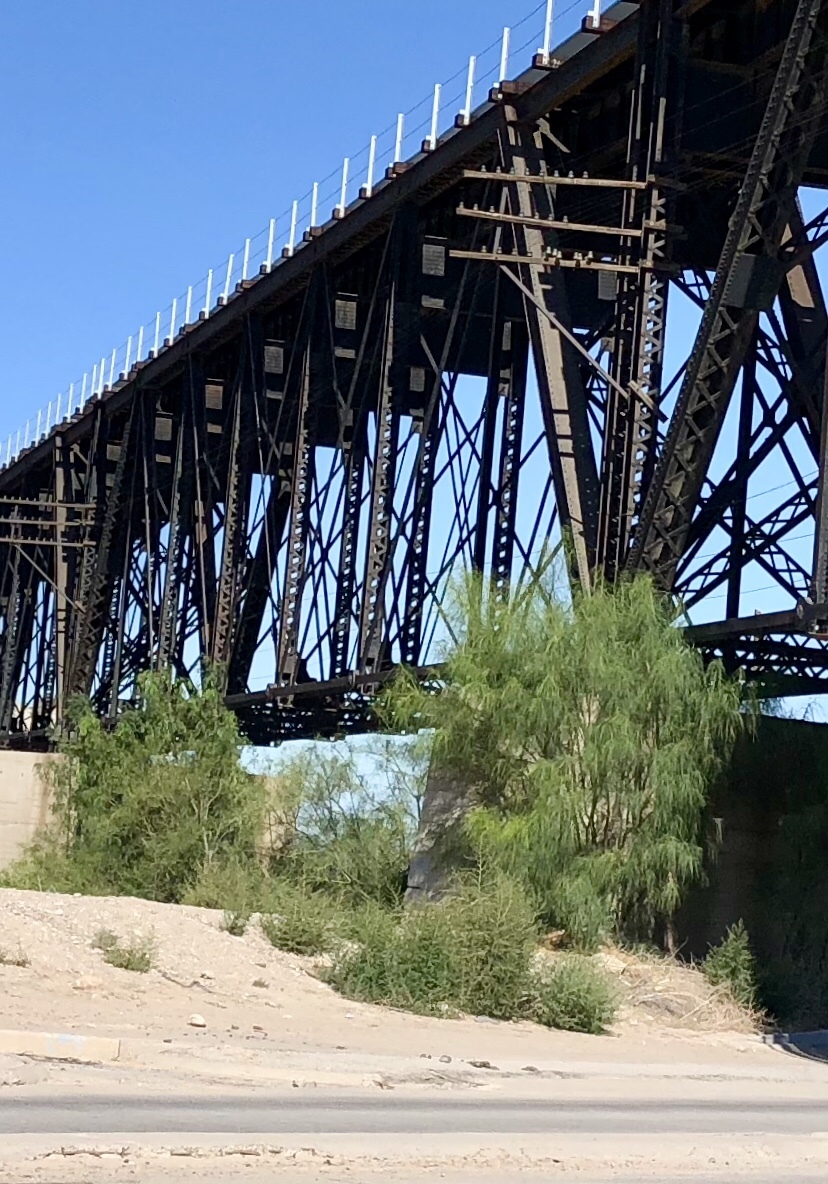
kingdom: Plantae
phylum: Tracheophyta
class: Magnoliopsida
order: Fabales
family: Fabaceae
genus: Parkinsonia
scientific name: Parkinsonia aculeata
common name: Jerusalem thorn
